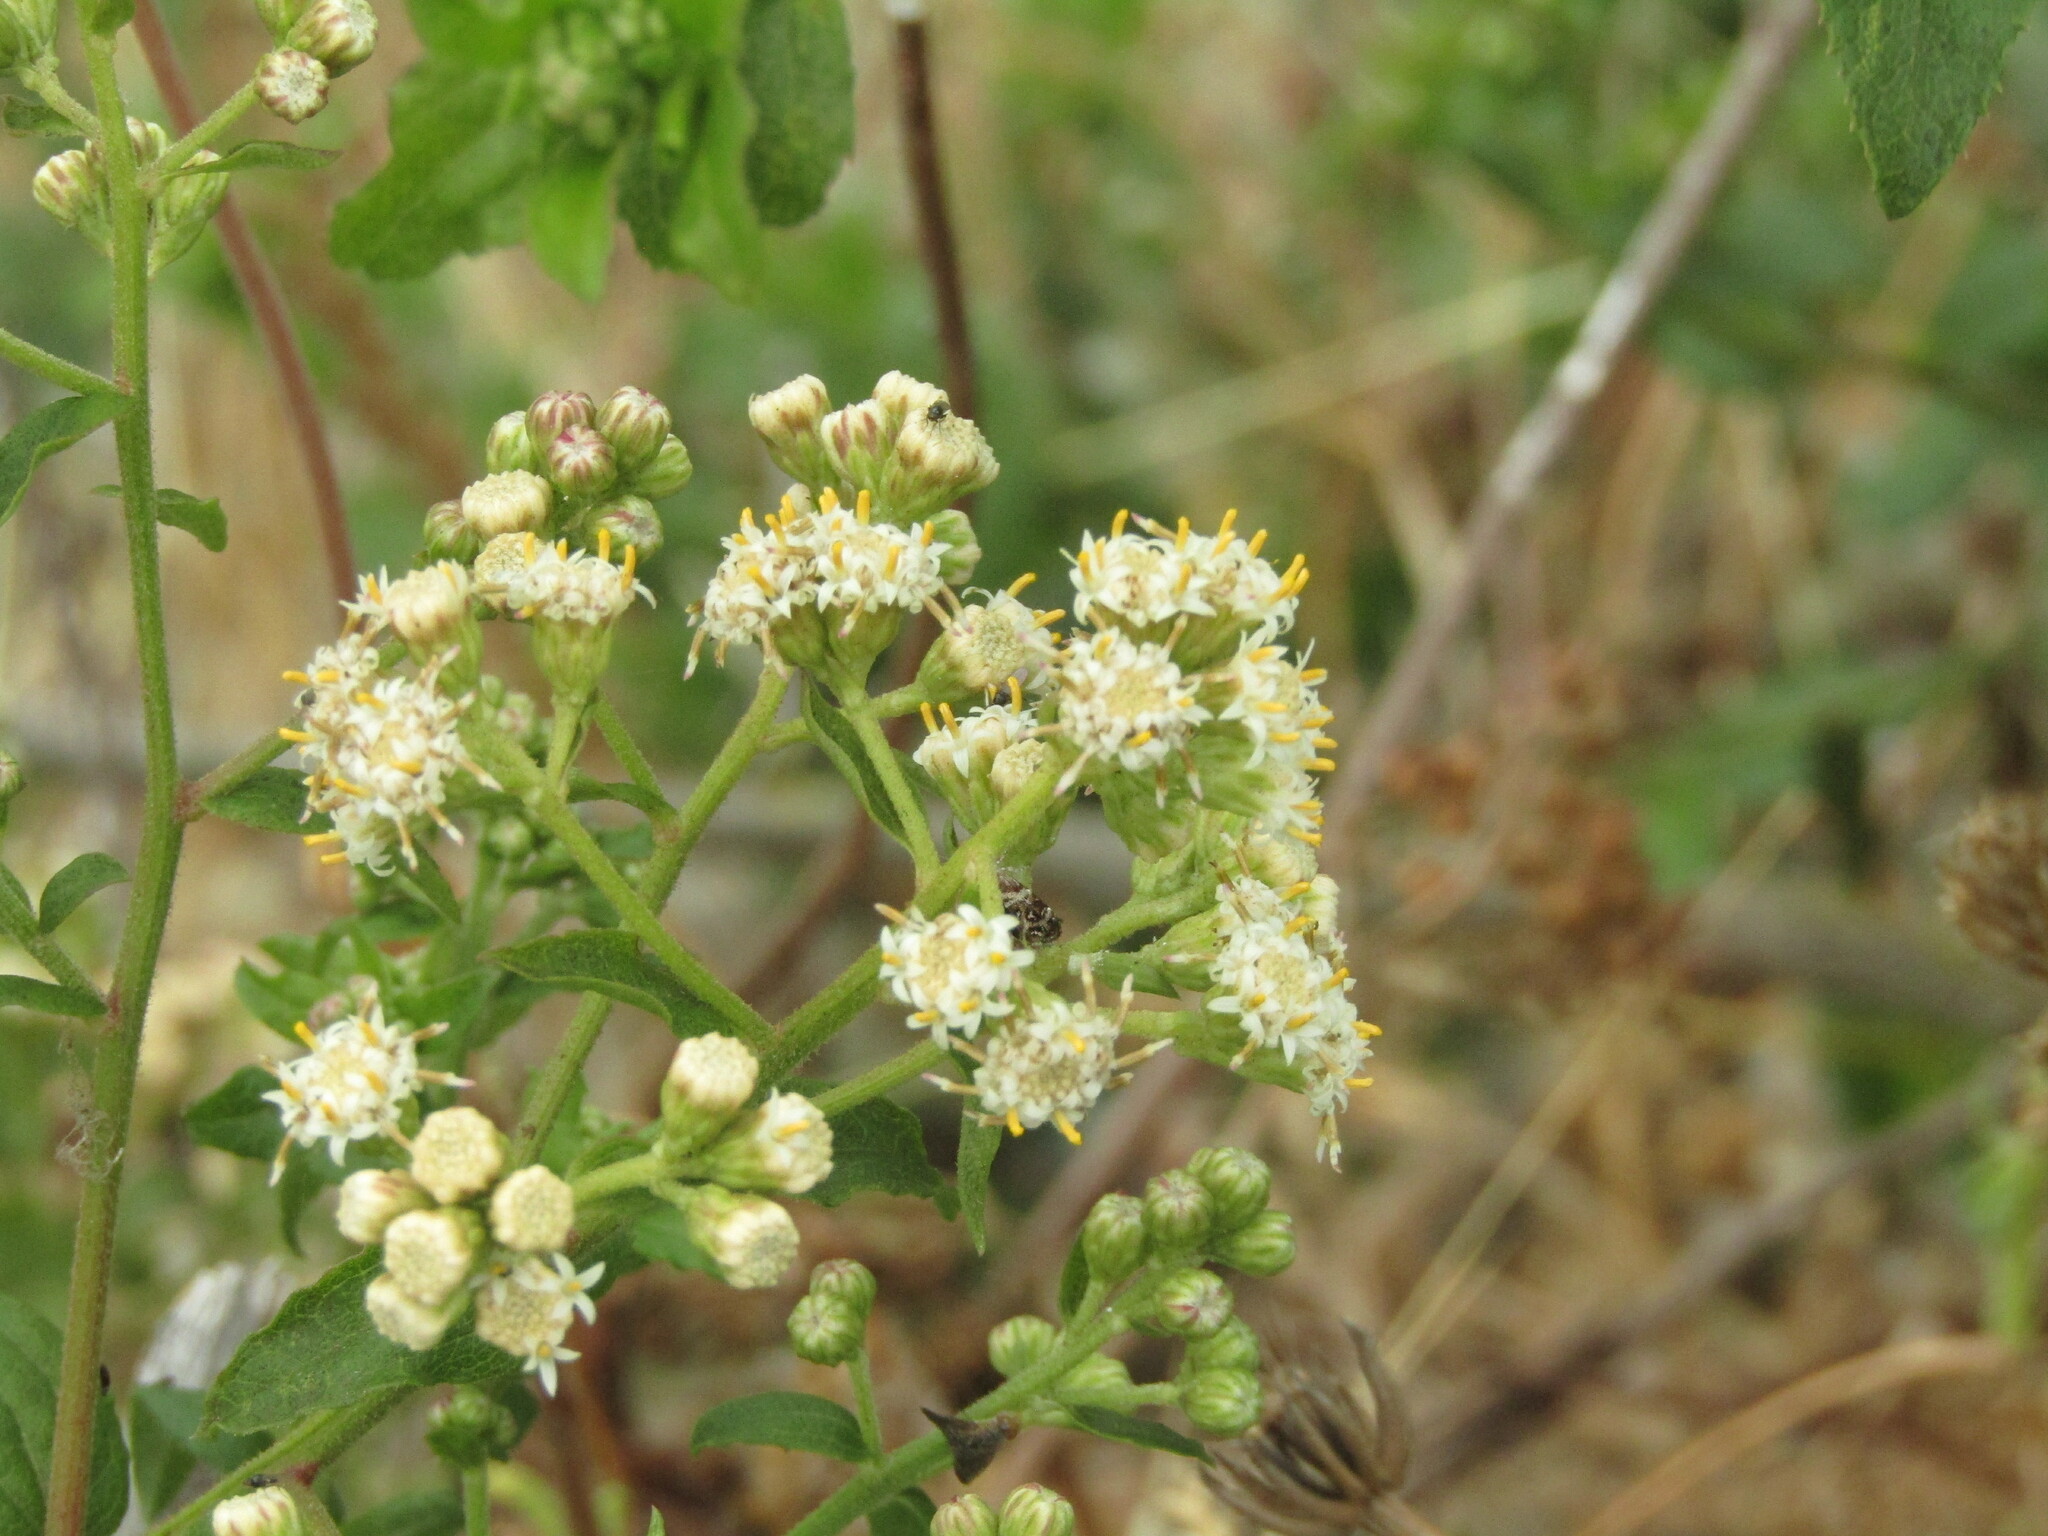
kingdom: Plantae
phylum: Tracheophyta
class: Magnoliopsida
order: Asterales
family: Asteraceae
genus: Baccharis
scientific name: Baccharis racemosa
